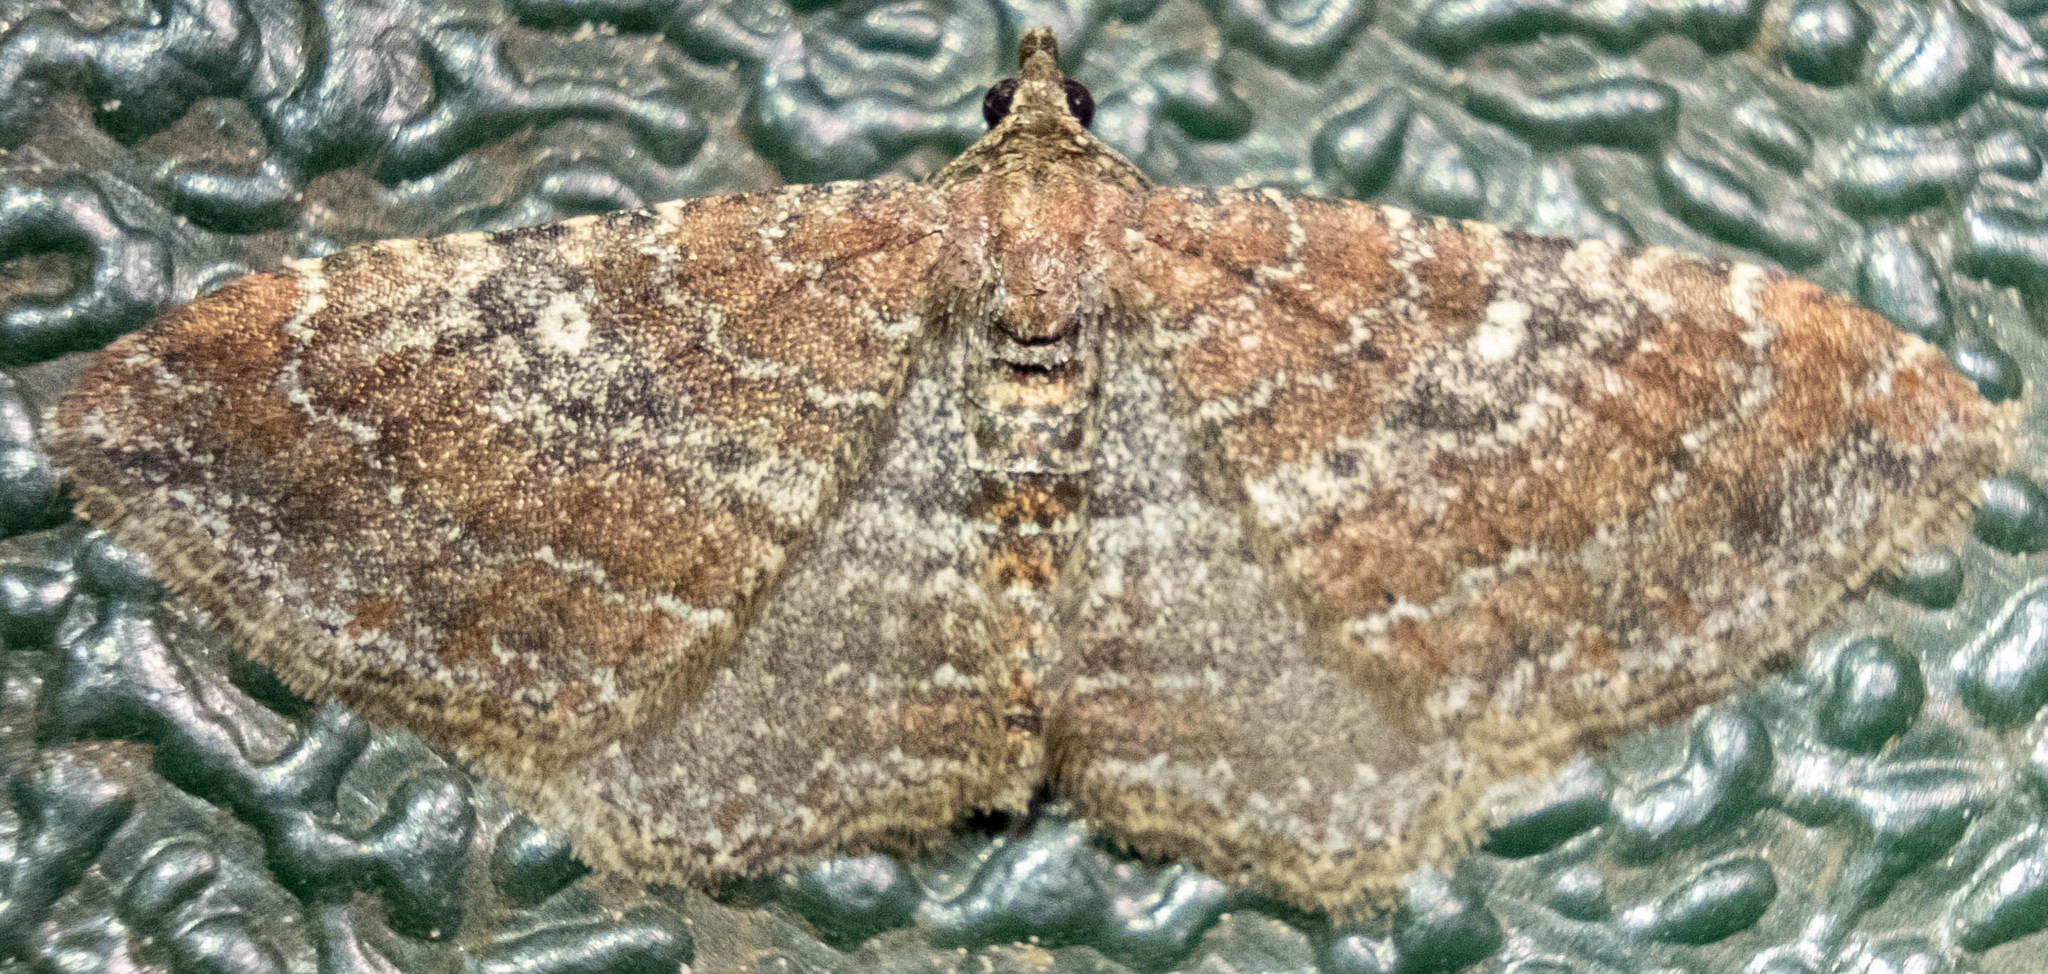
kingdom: Animalia
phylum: Arthropoda
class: Insecta
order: Lepidoptera
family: Geometridae
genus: Orthonama
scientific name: Orthonama obstipata
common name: The gem
